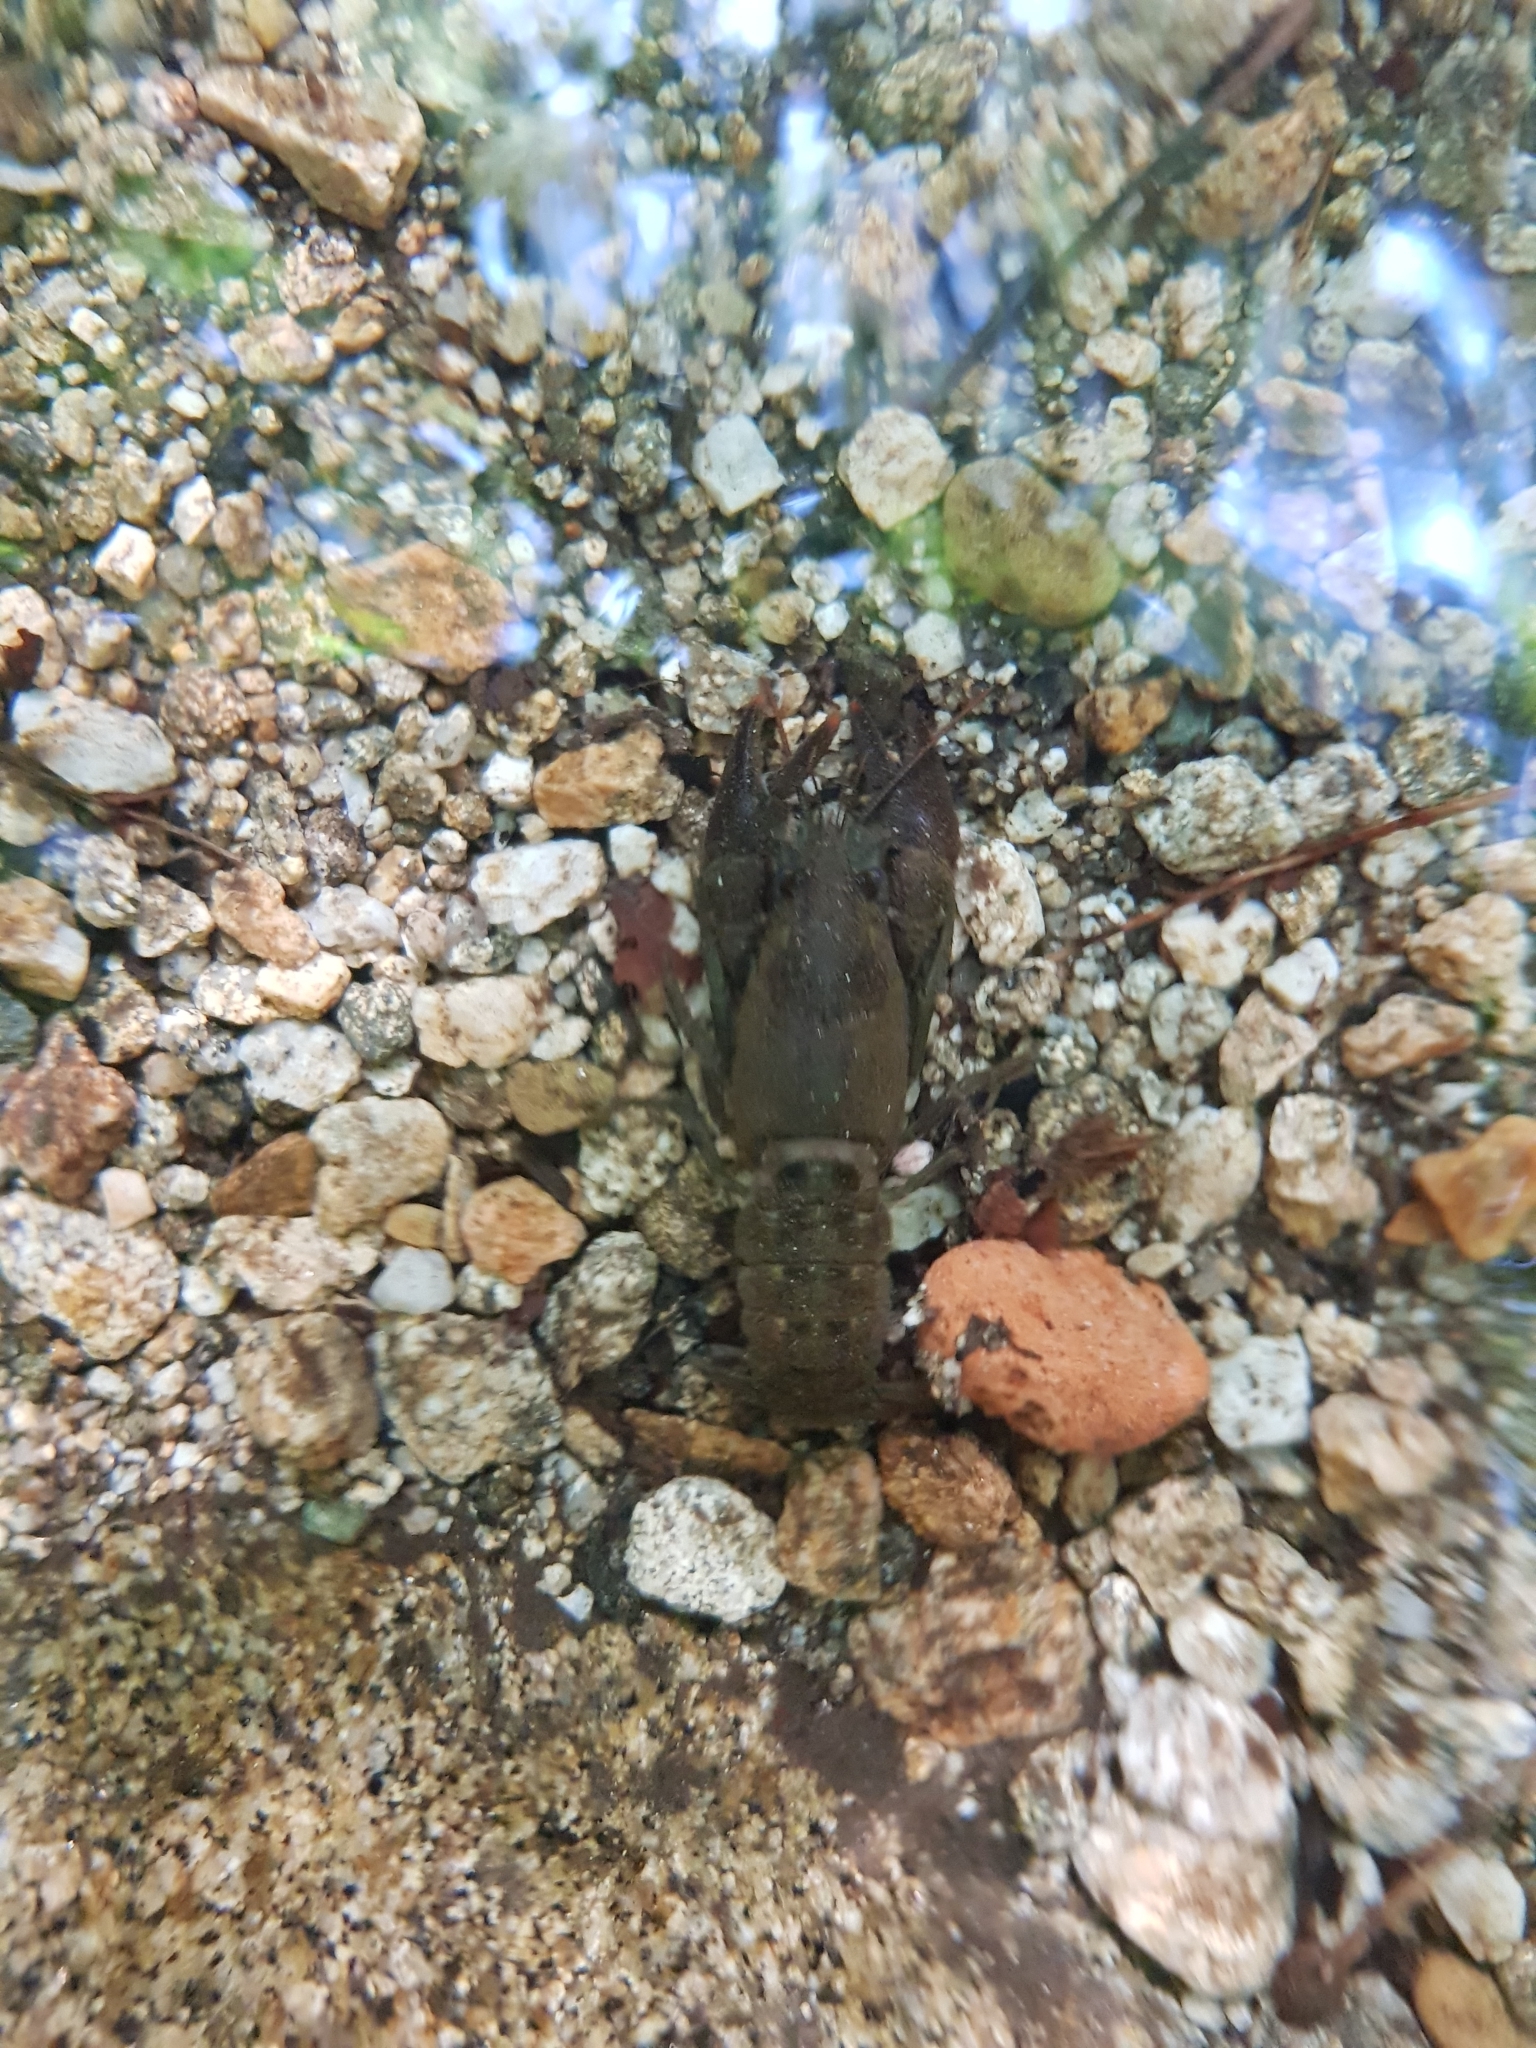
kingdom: Animalia
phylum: Arthropoda
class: Malacostraca
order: Decapoda
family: Astacidae
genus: Pacifastacus
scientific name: Pacifastacus leniusculus
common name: Signal crayfish
